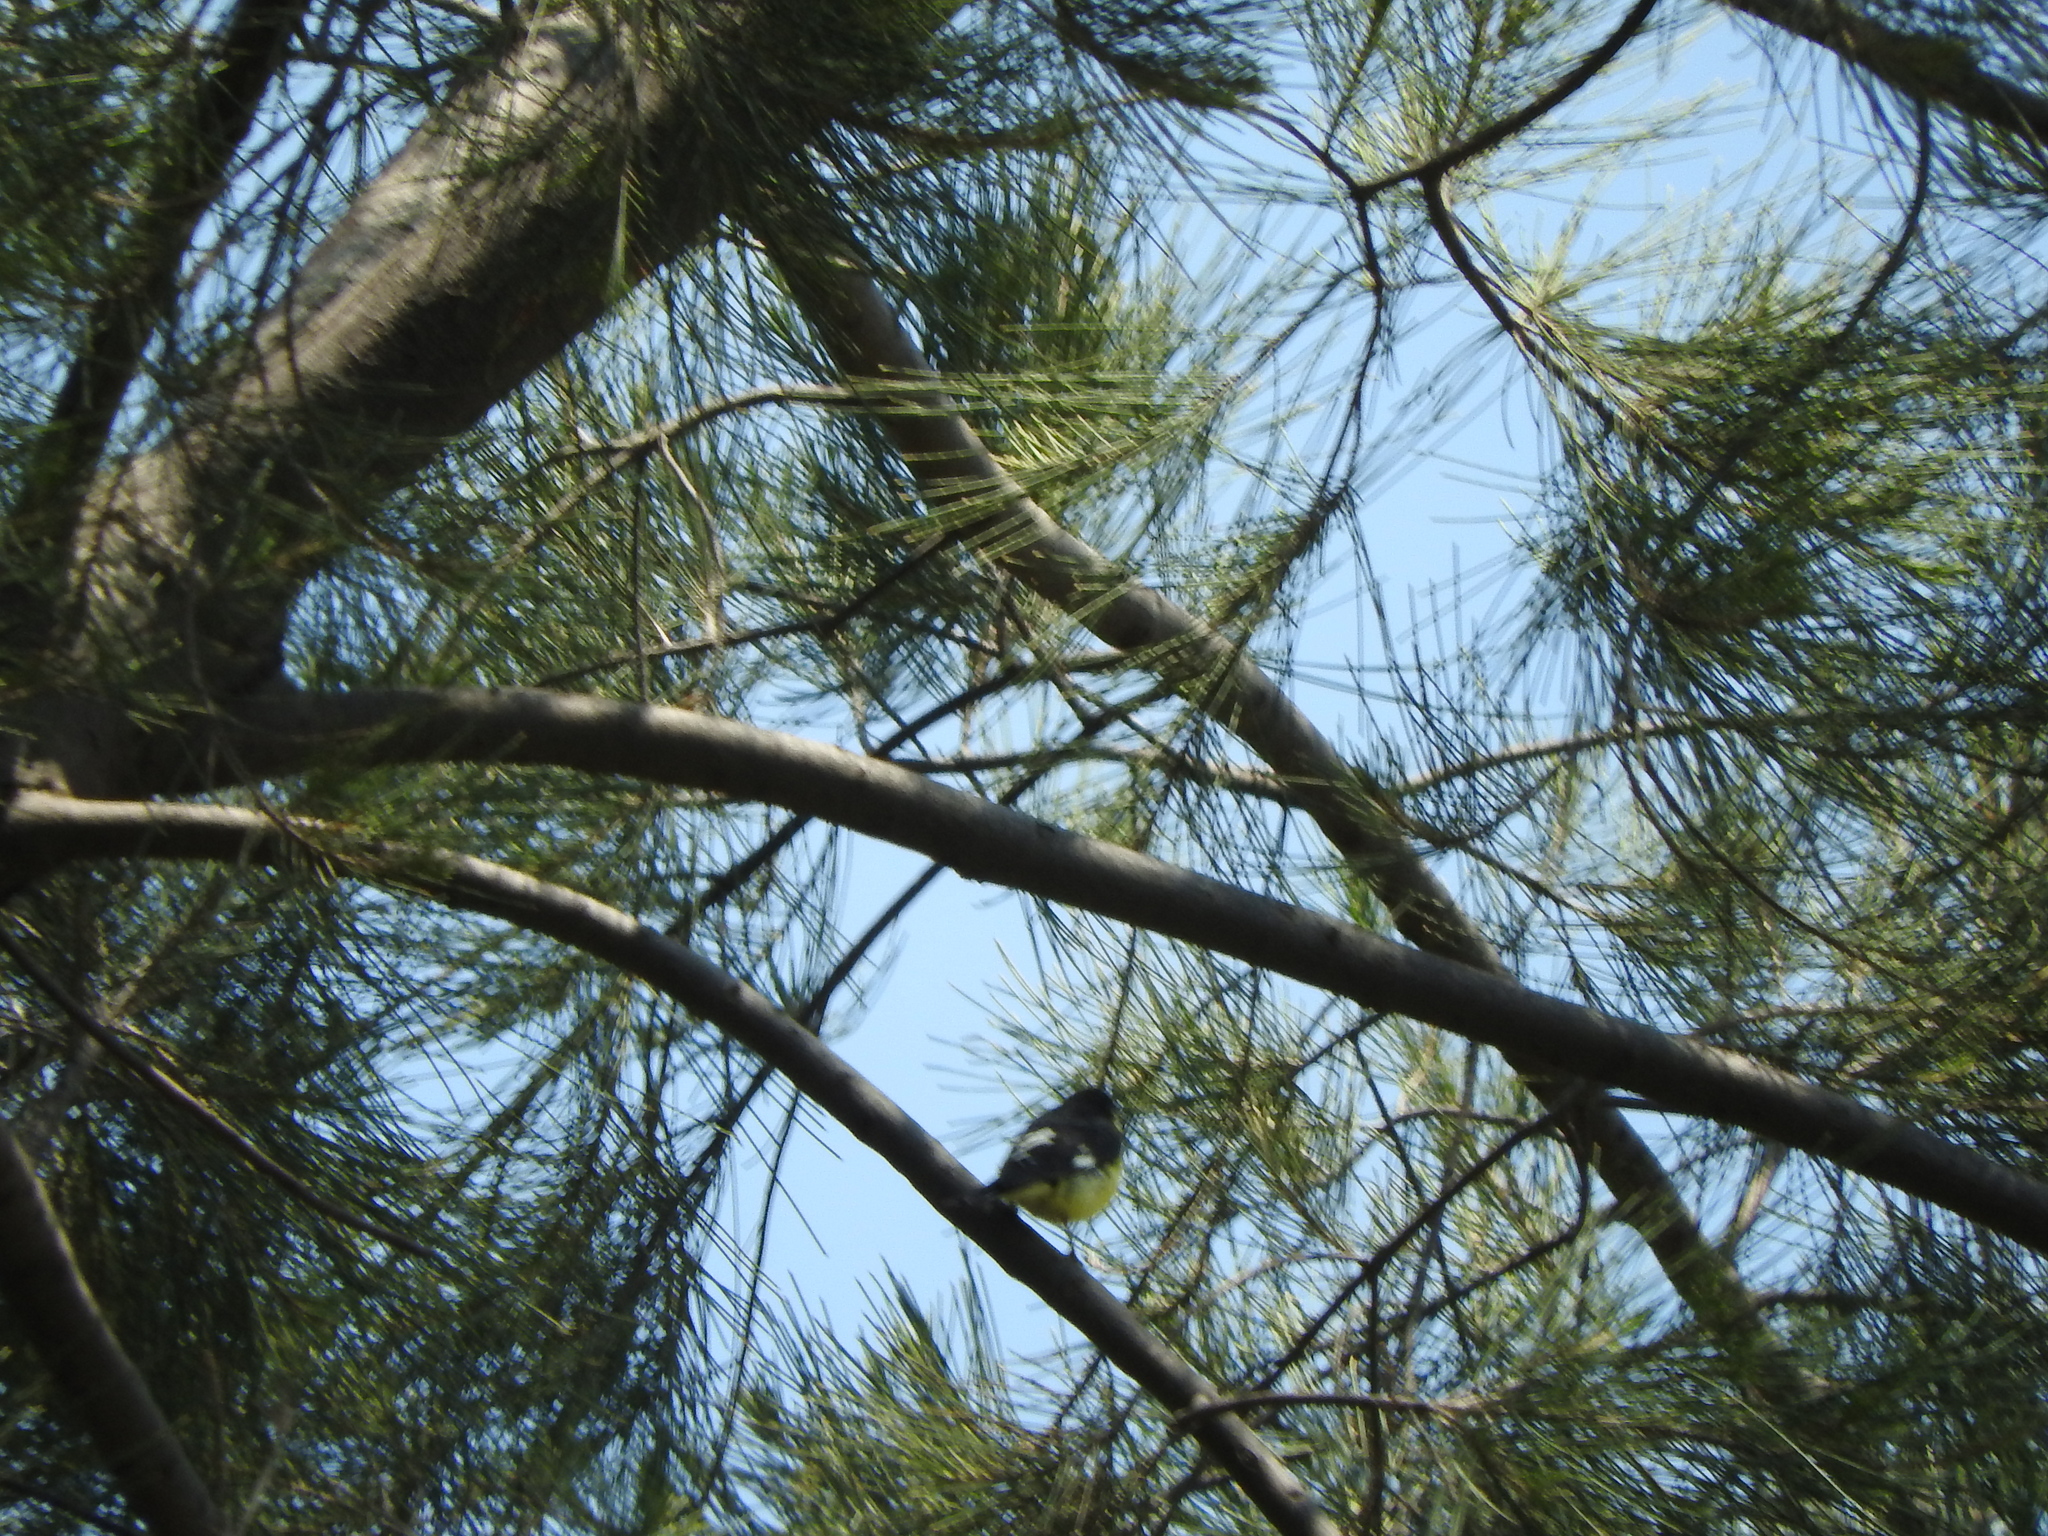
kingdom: Animalia
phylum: Chordata
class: Aves
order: Passeriformes
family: Fringillidae
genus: Spinus
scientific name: Spinus psaltria
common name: Lesser goldfinch
